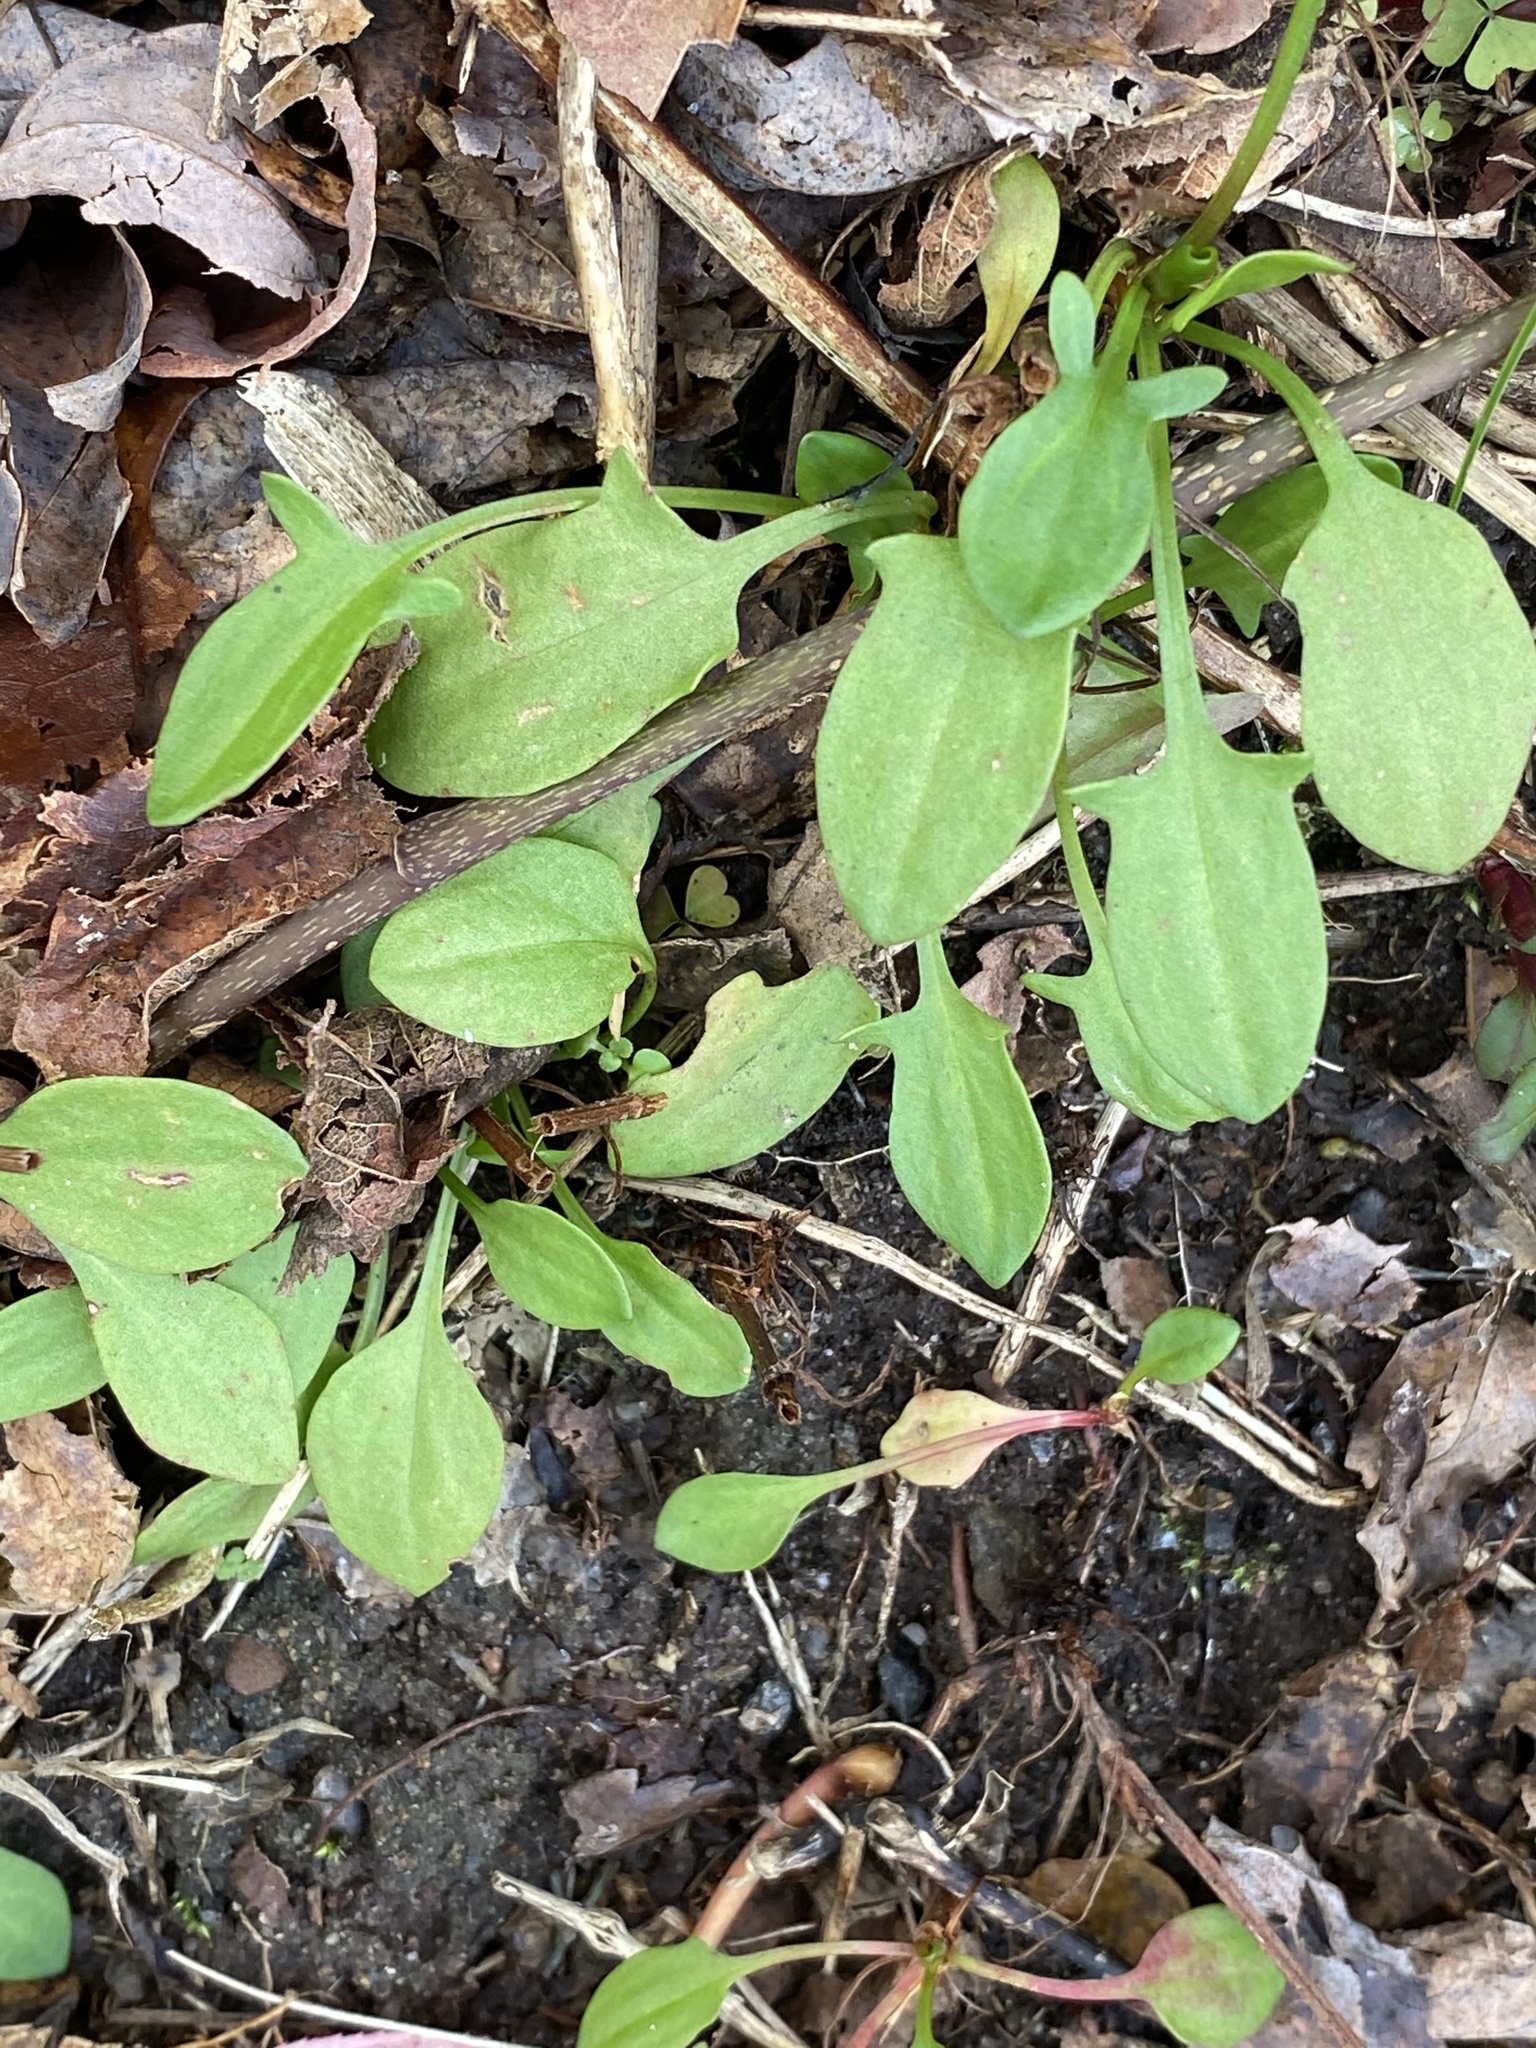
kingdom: Plantae
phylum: Tracheophyta
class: Magnoliopsida
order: Caryophyllales
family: Polygonaceae
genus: Rumex
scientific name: Rumex acetosella
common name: Common sheep sorrel
